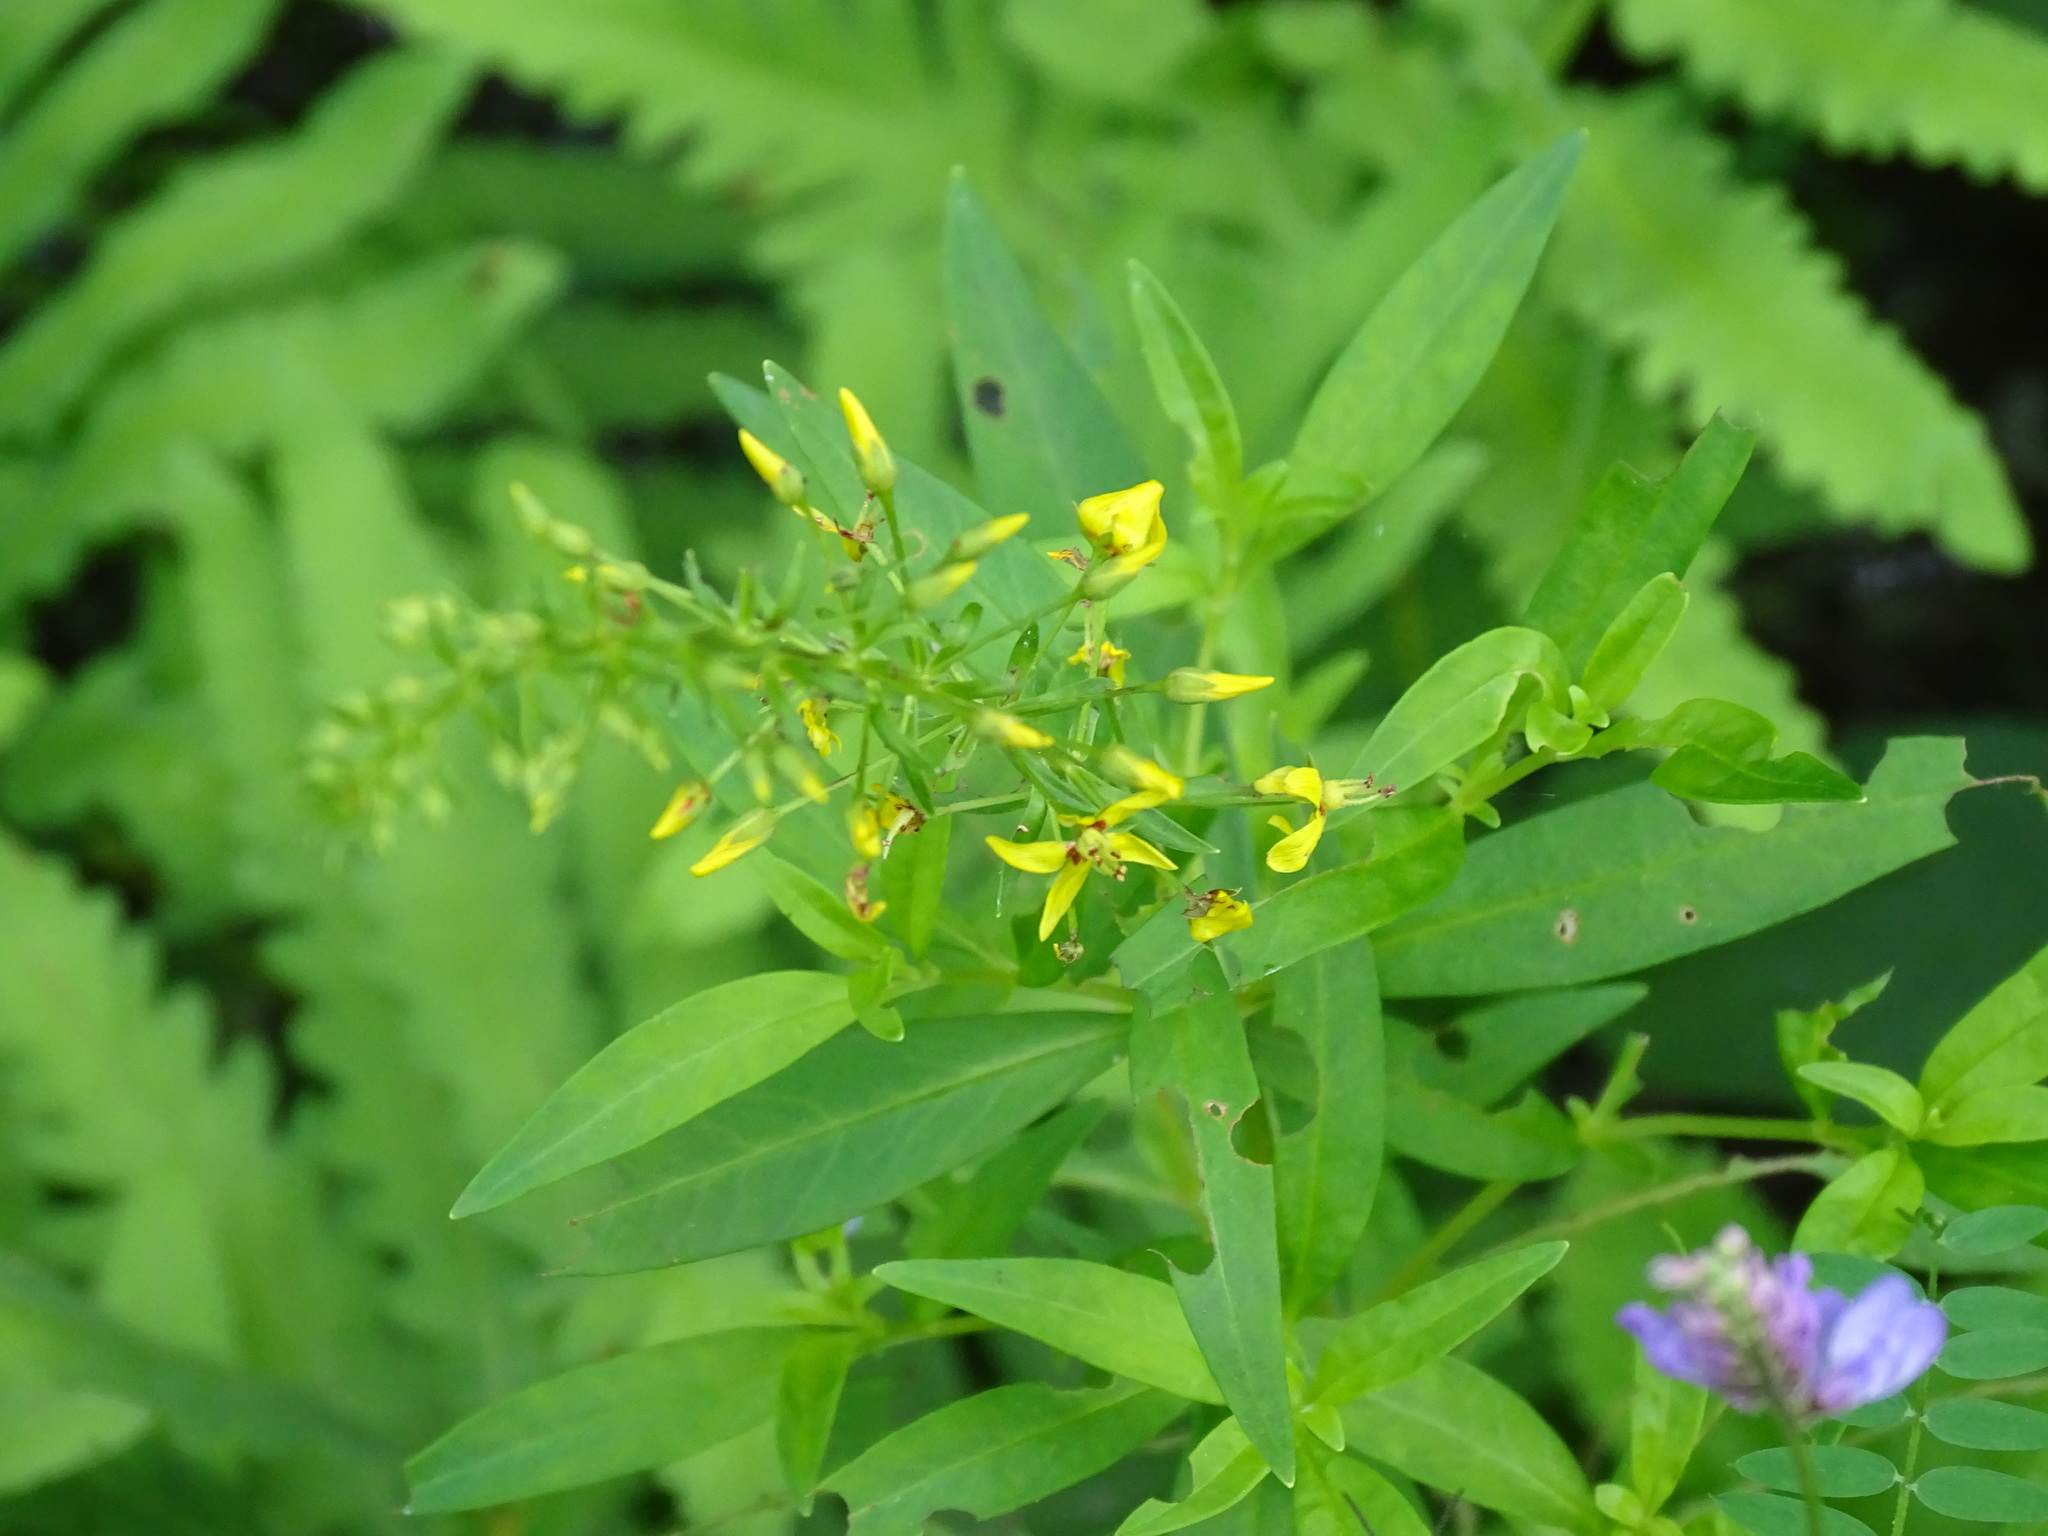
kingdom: Plantae
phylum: Tracheophyta
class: Magnoliopsida
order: Ericales
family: Primulaceae
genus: Lysimachia
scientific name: Lysimachia terrestris
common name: Lake loosestrife
